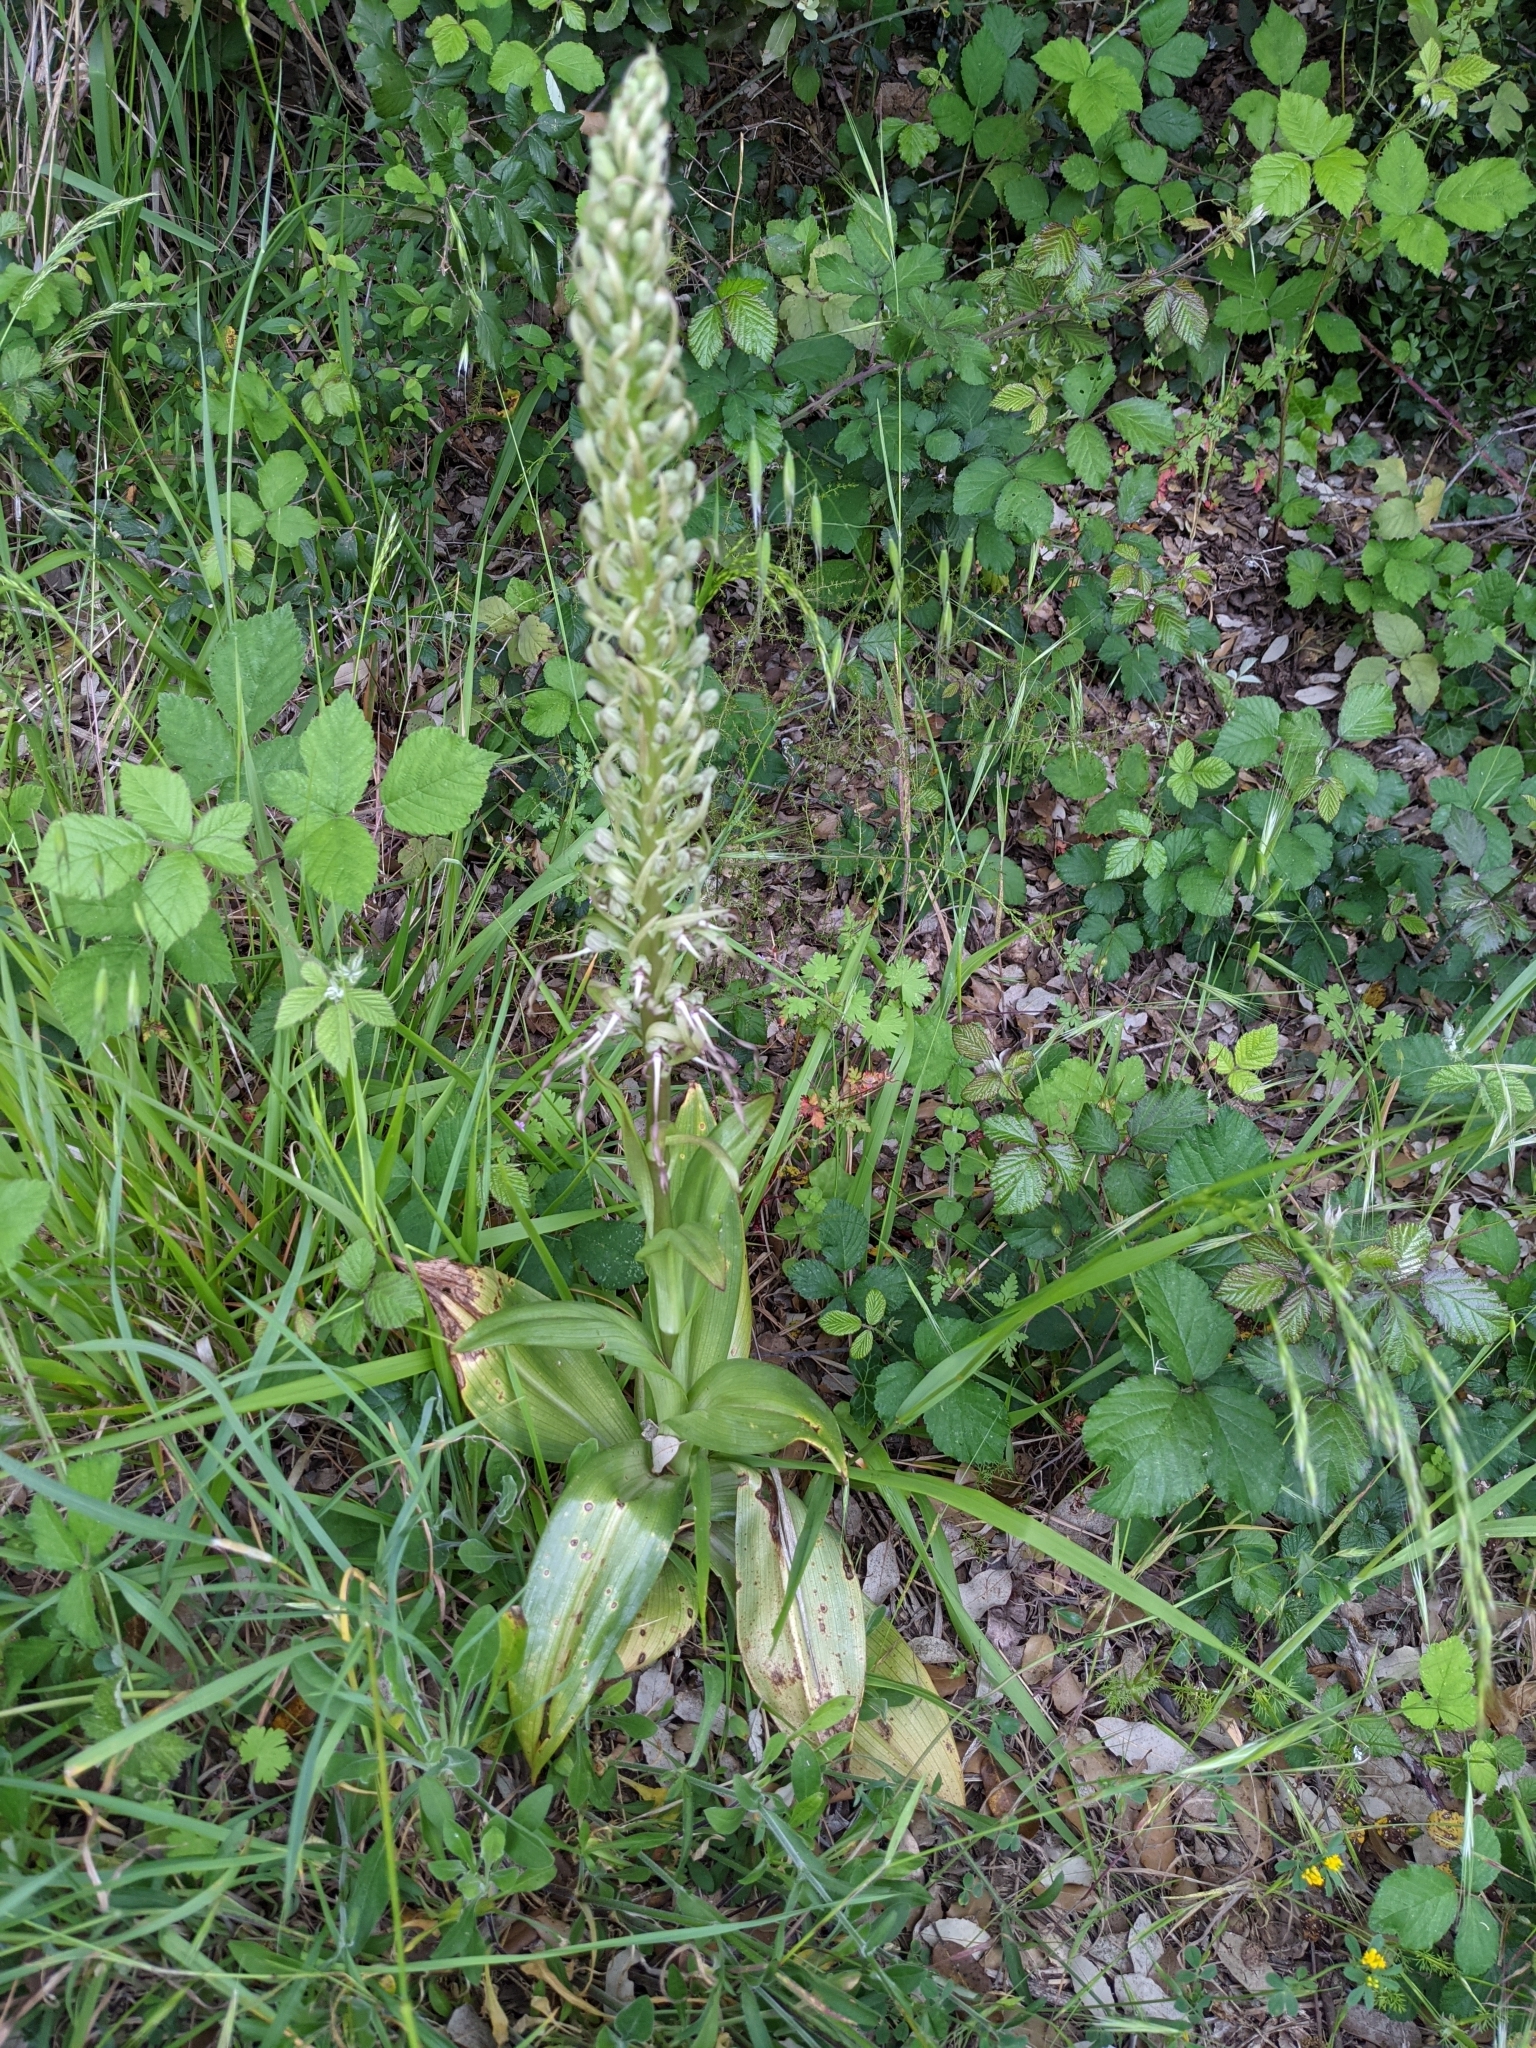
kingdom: Plantae
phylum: Tracheophyta
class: Liliopsida
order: Asparagales
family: Orchidaceae
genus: Himantoglossum
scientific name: Himantoglossum hircinum
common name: Lizard orchid
